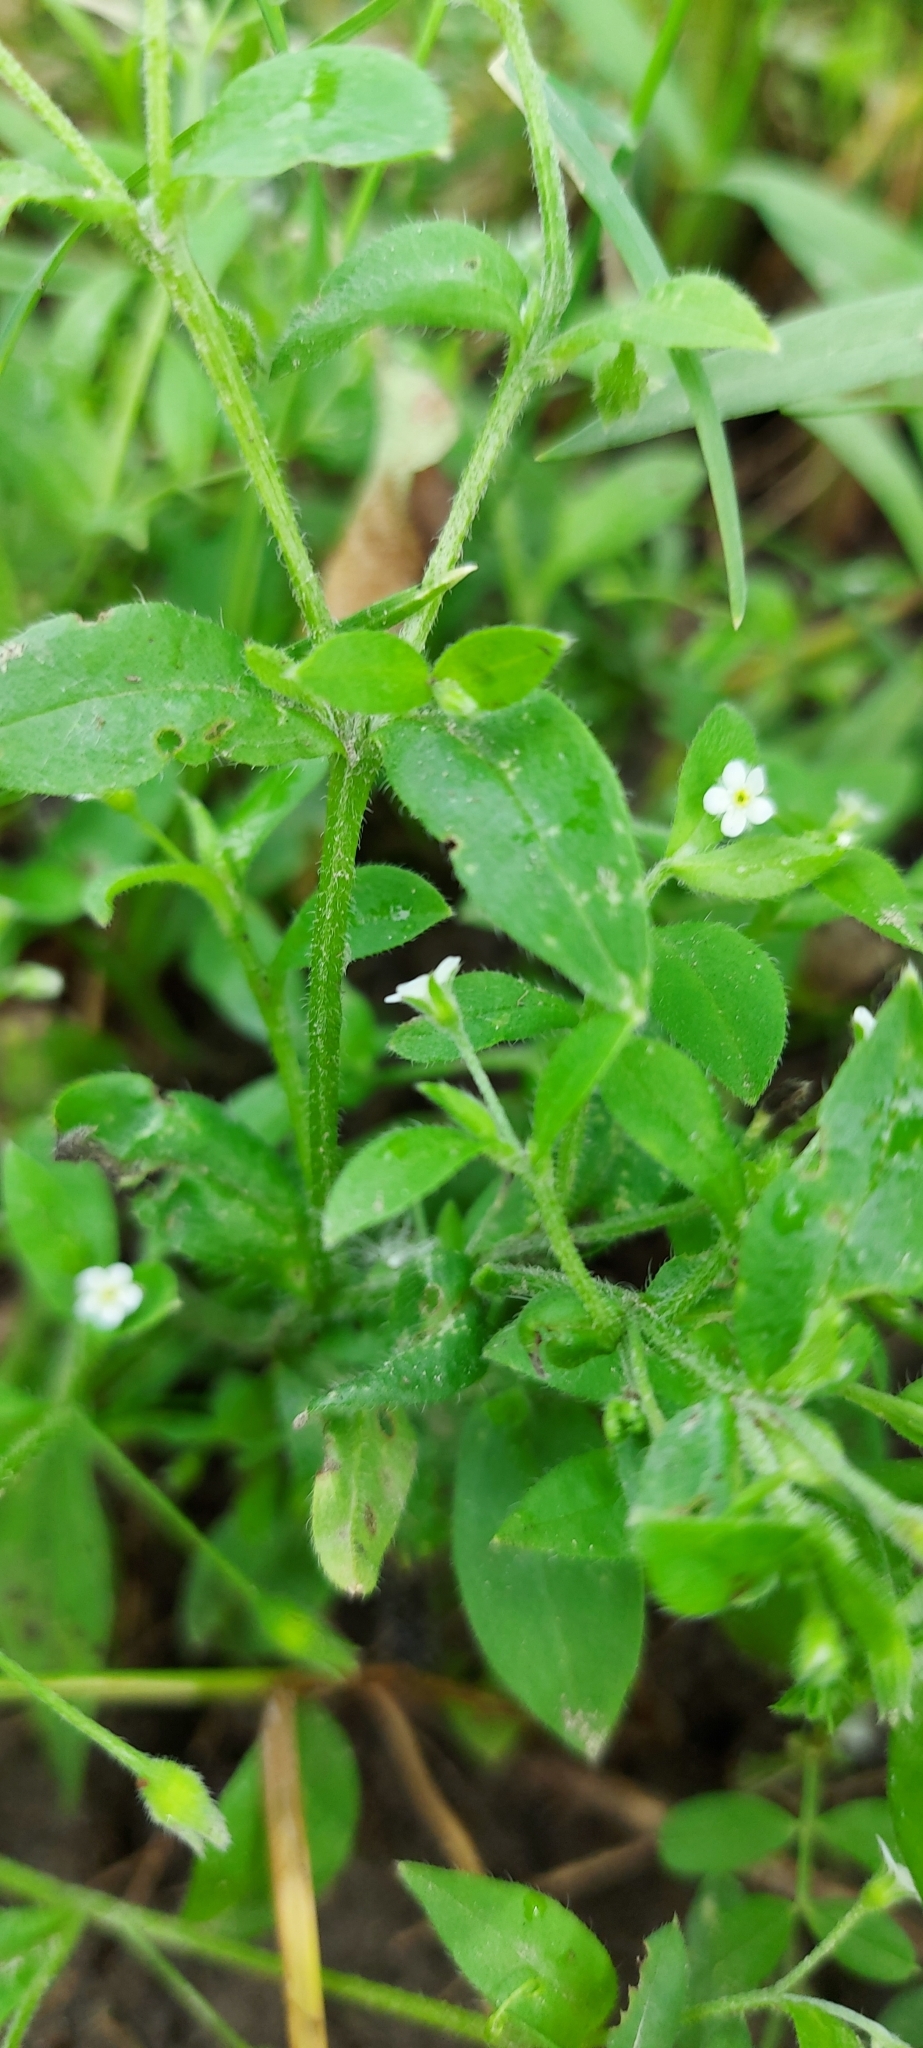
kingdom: Plantae
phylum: Tracheophyta
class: Magnoliopsida
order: Boraginales
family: Boraginaceae
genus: Myosotis
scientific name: Myosotis sparsiflora
